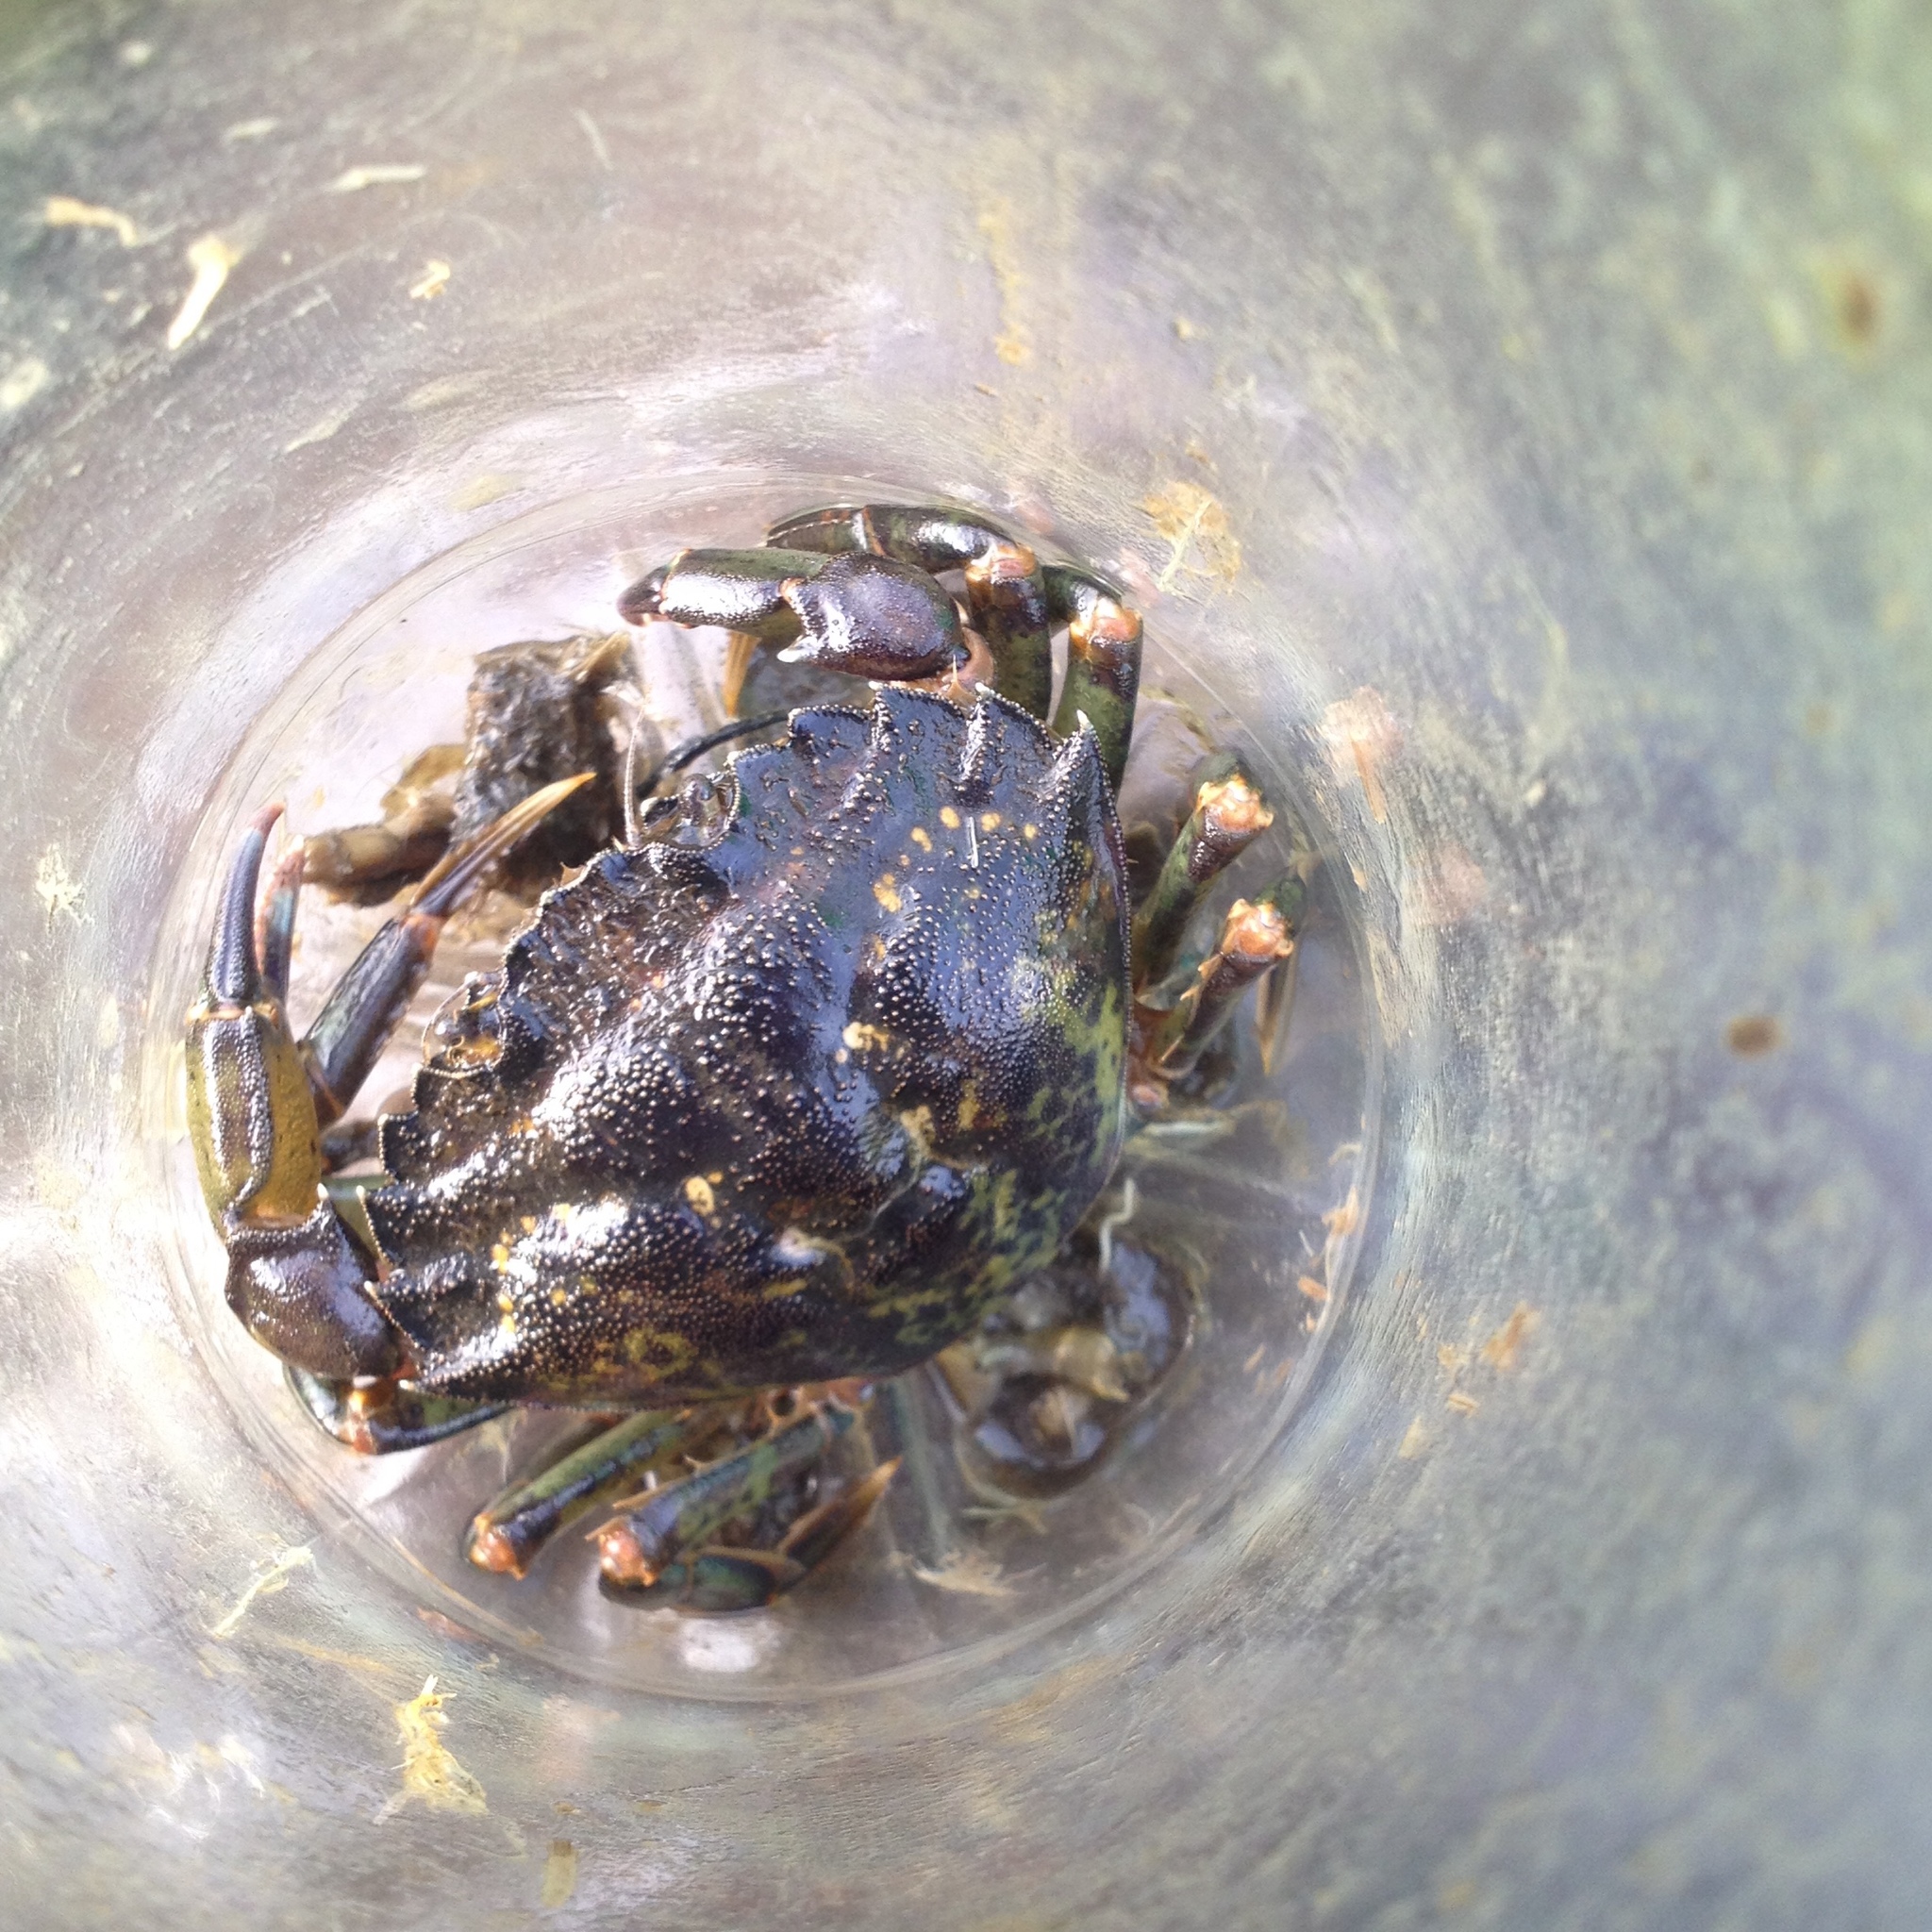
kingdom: Animalia
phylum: Arthropoda
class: Malacostraca
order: Decapoda
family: Carcinidae
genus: Carcinus
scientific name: Carcinus maenas
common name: European green crab
